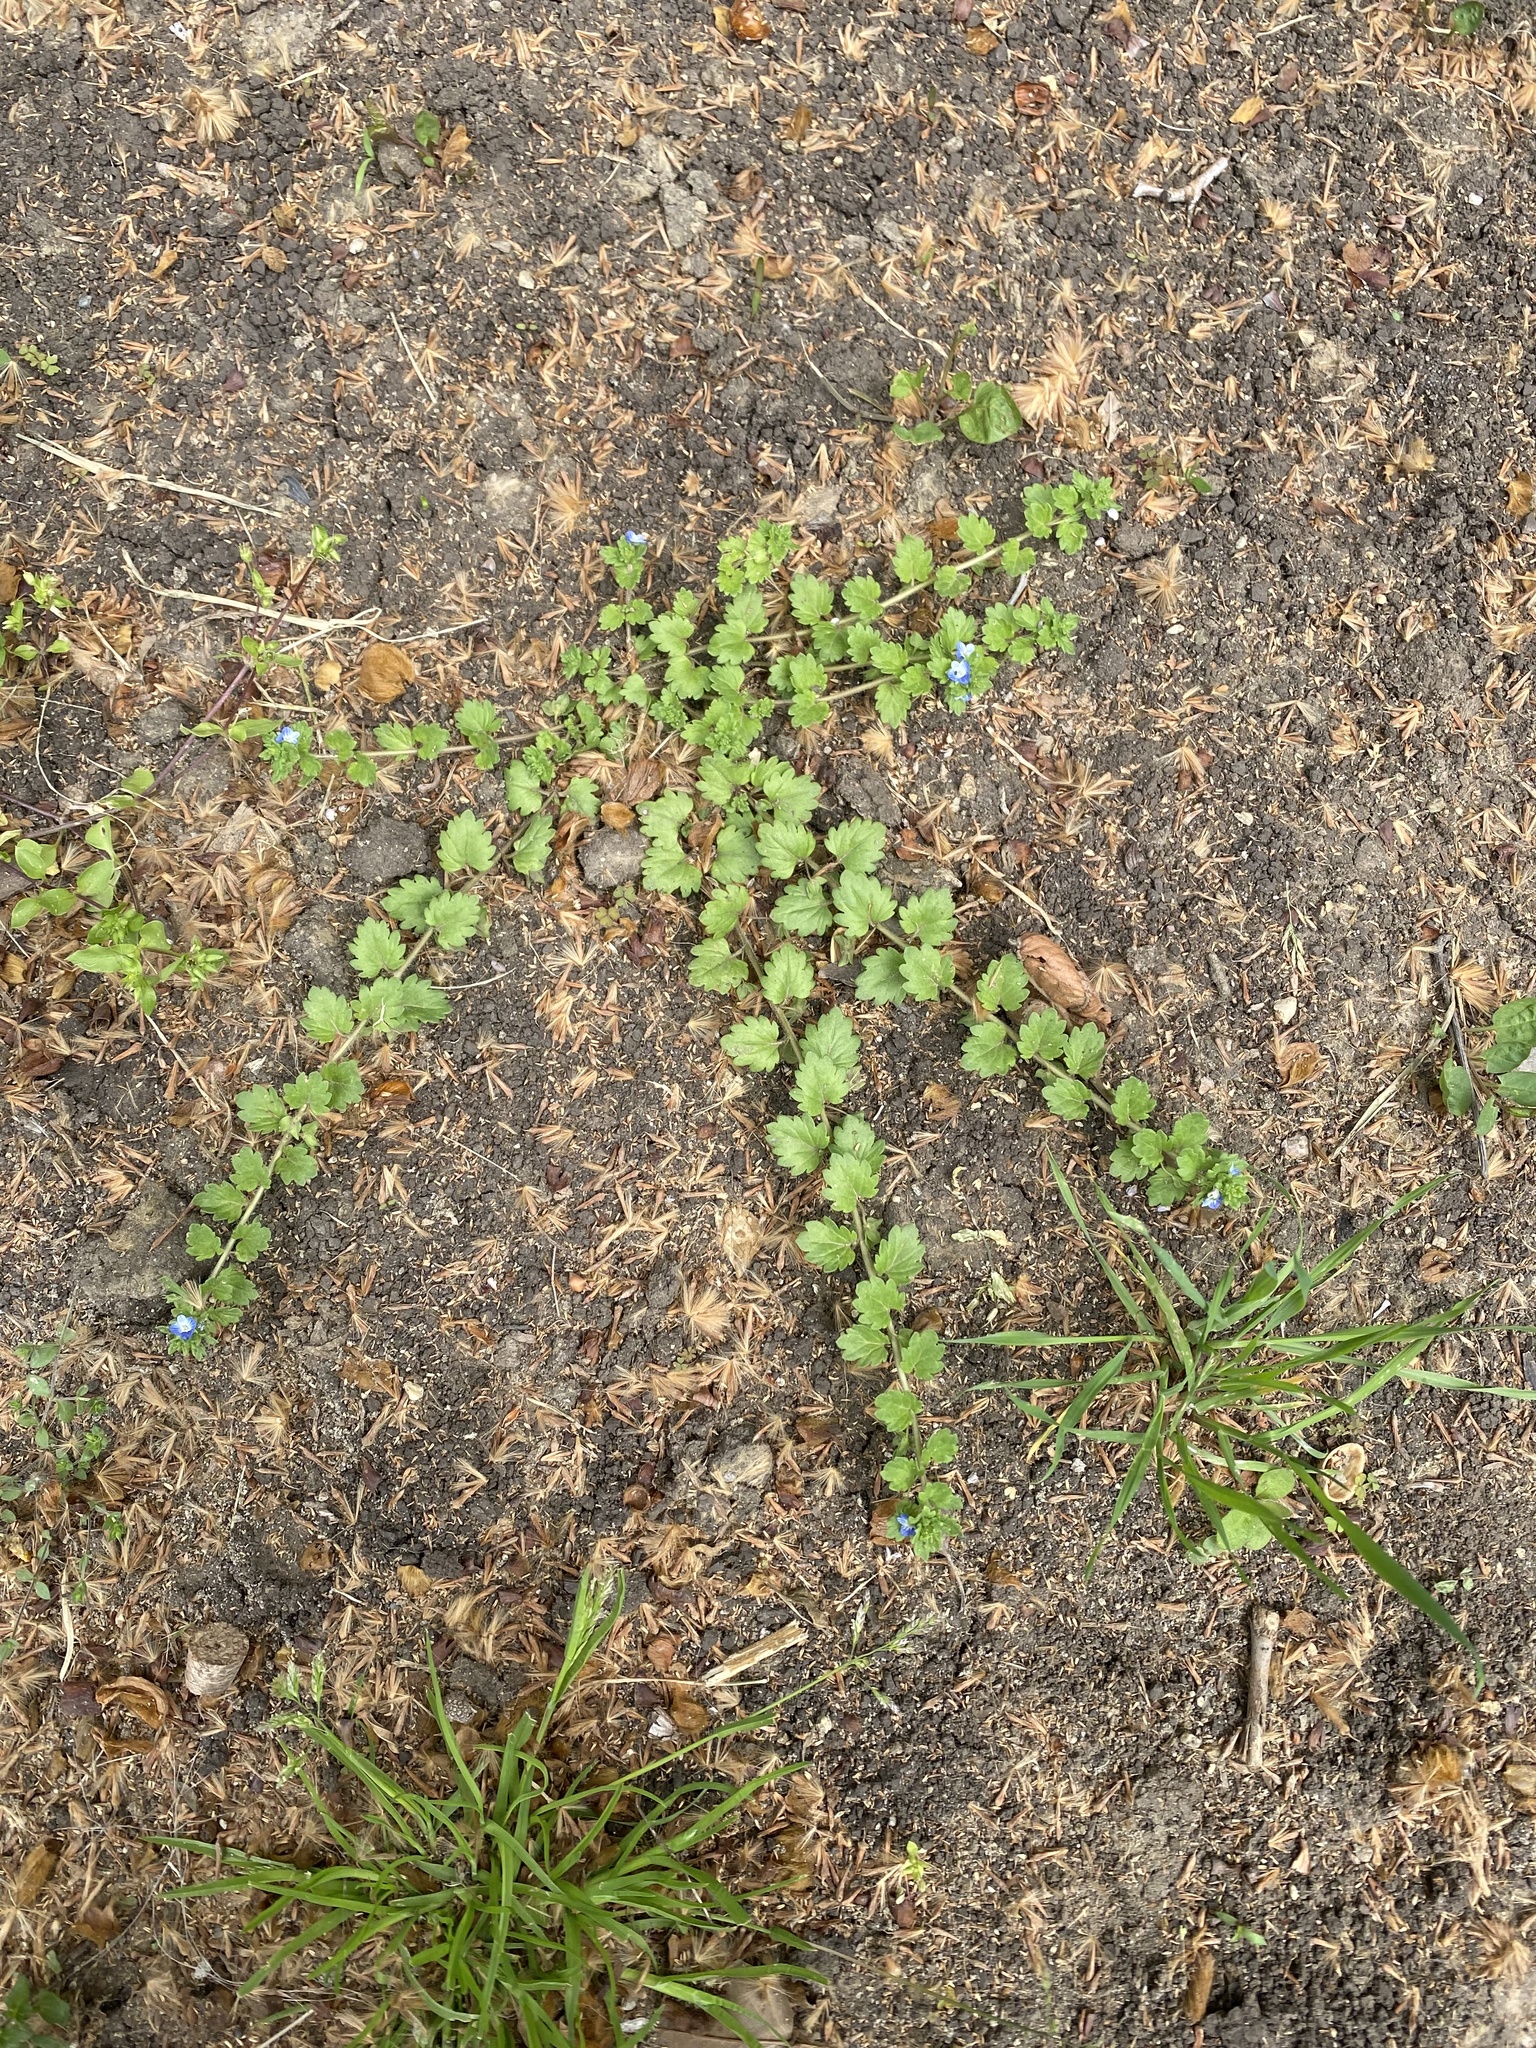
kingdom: Plantae
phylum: Tracheophyta
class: Magnoliopsida
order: Lamiales
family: Plantaginaceae
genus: Veronica
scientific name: Veronica polita
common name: Grey field-speedwell
